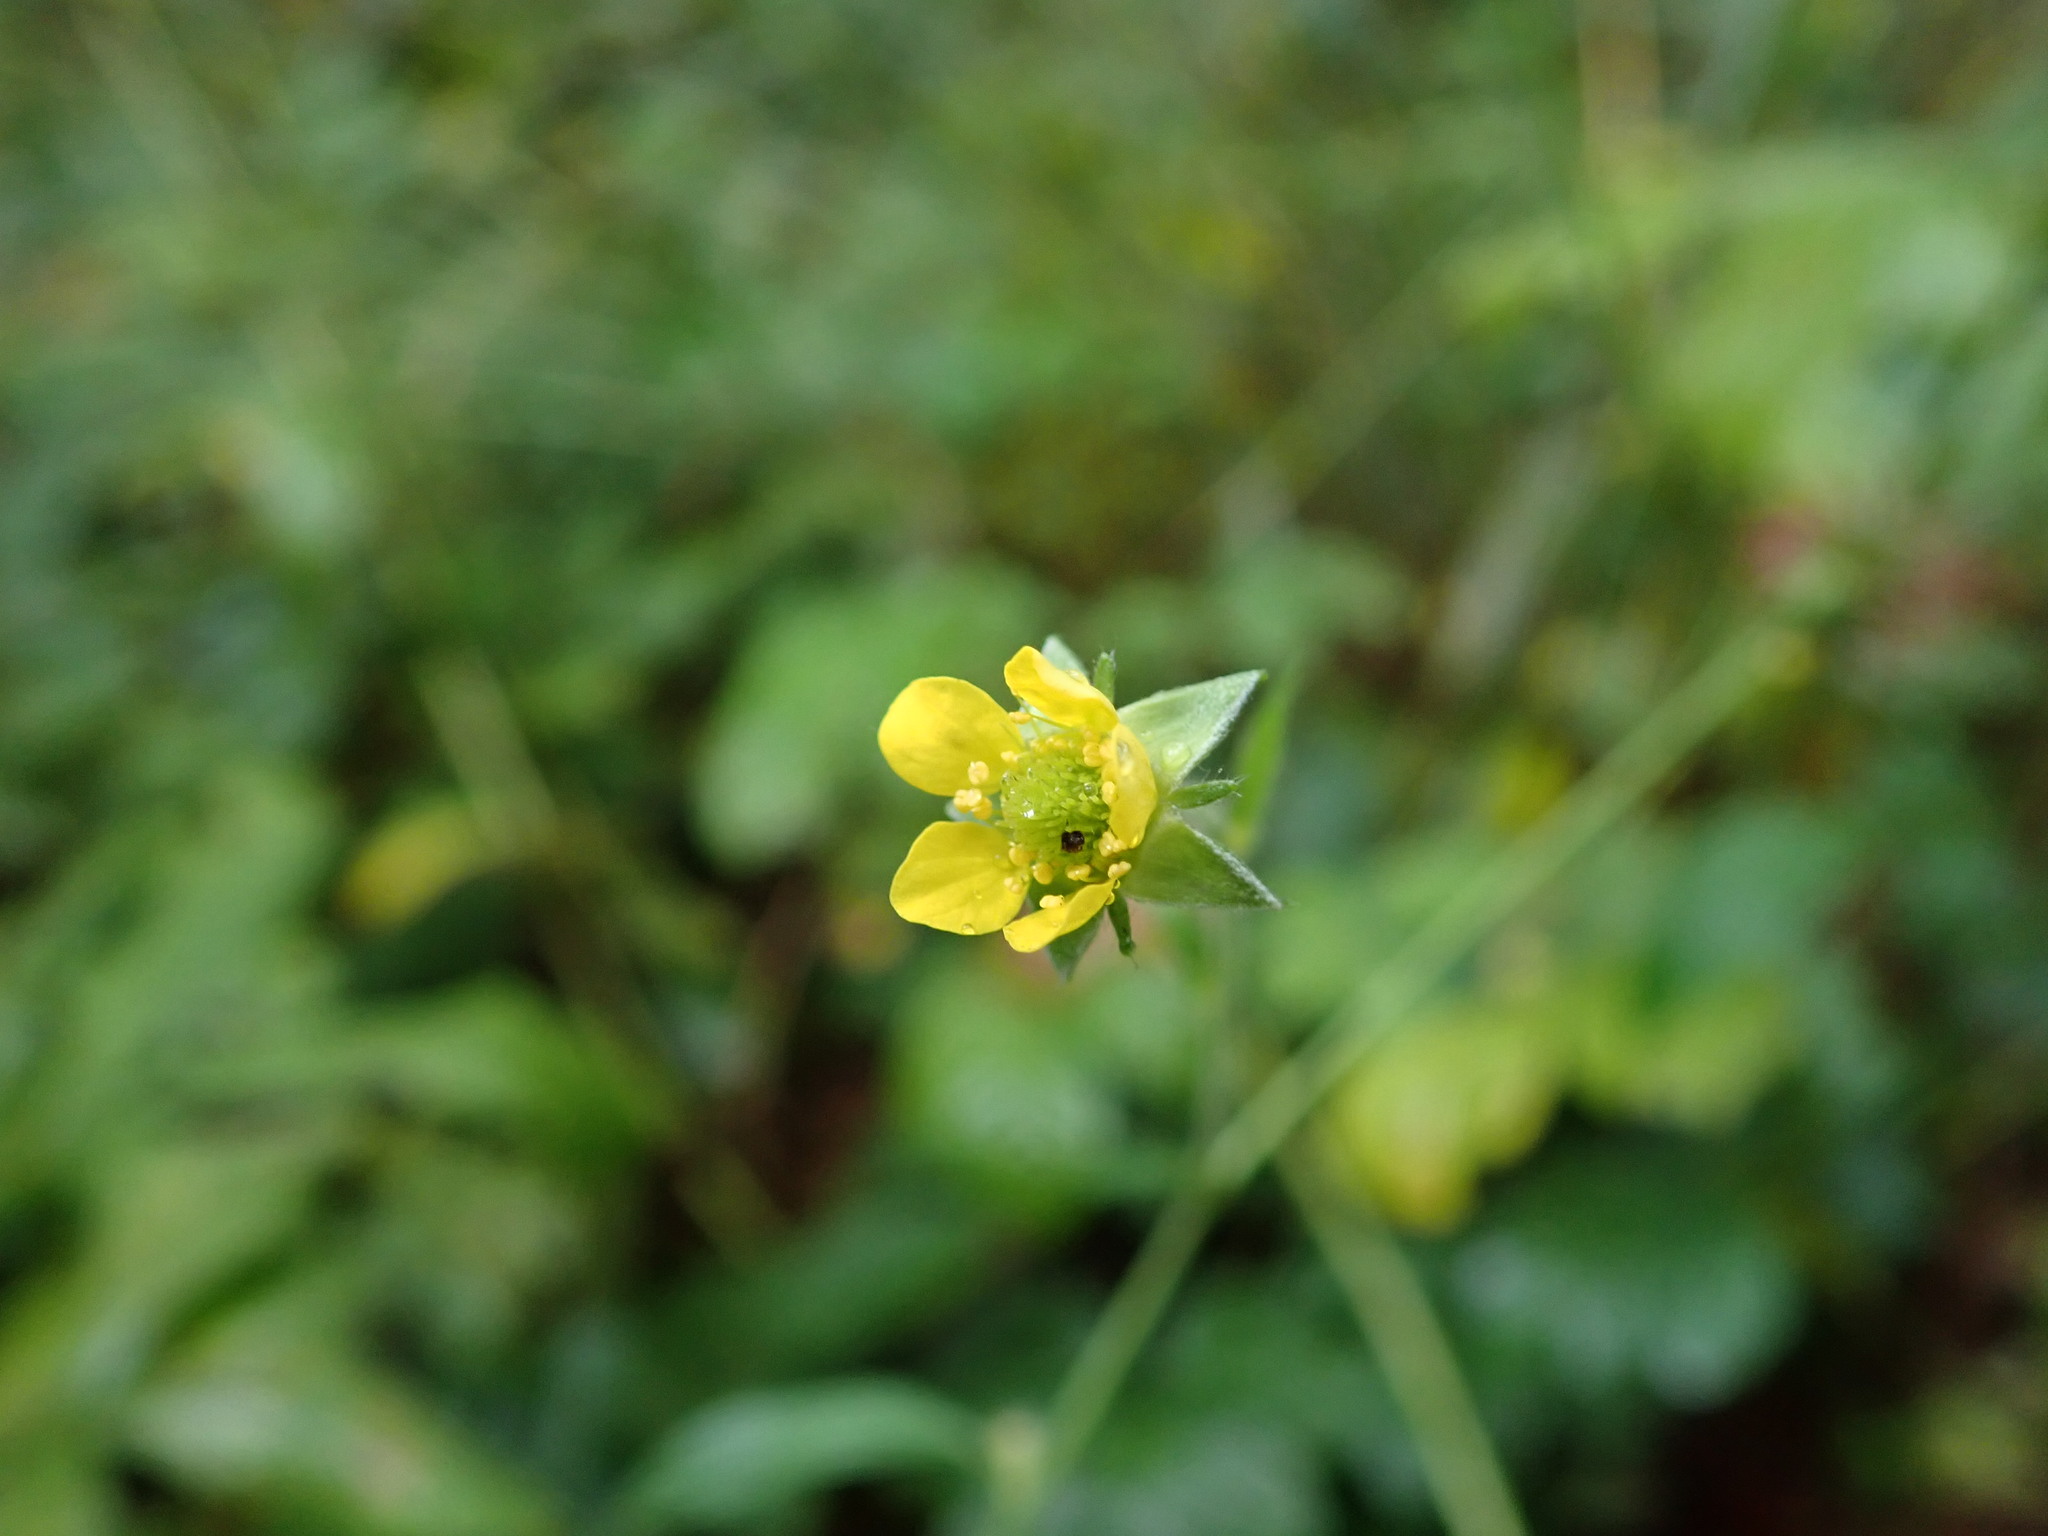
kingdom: Plantae
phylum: Tracheophyta
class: Magnoliopsida
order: Rosales
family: Rosaceae
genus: Geum
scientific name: Geum urbanum
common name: Wood avens
